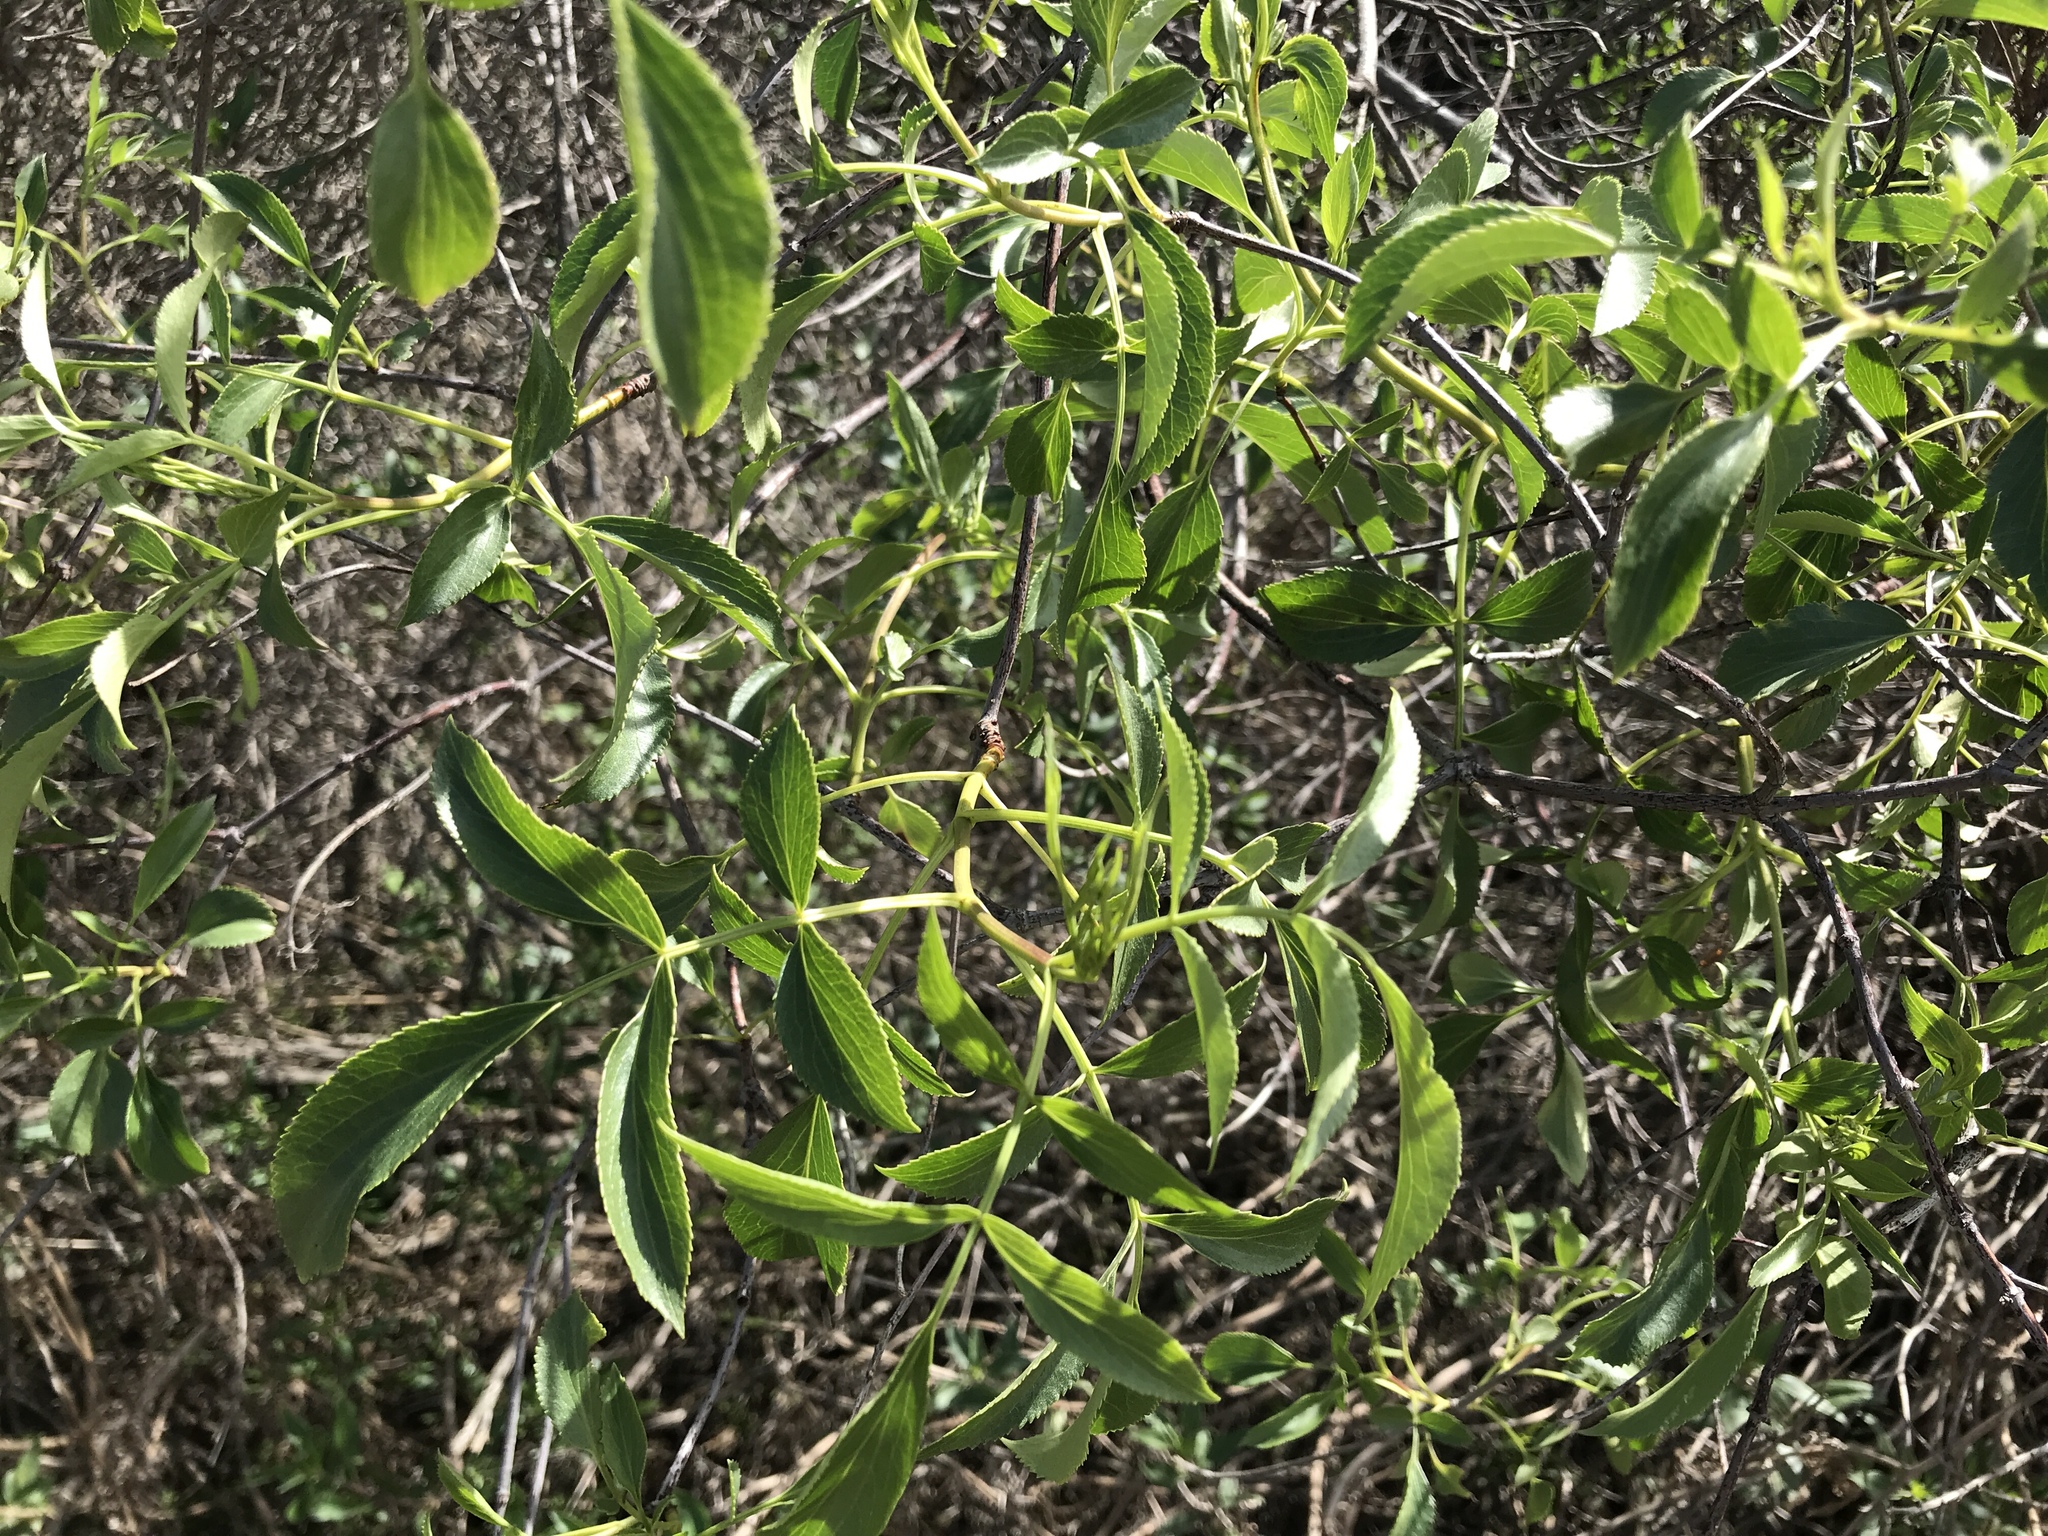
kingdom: Plantae
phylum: Tracheophyta
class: Magnoliopsida
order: Dipsacales
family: Viburnaceae
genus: Sambucus
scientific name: Sambucus cerulea
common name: Blue elder
